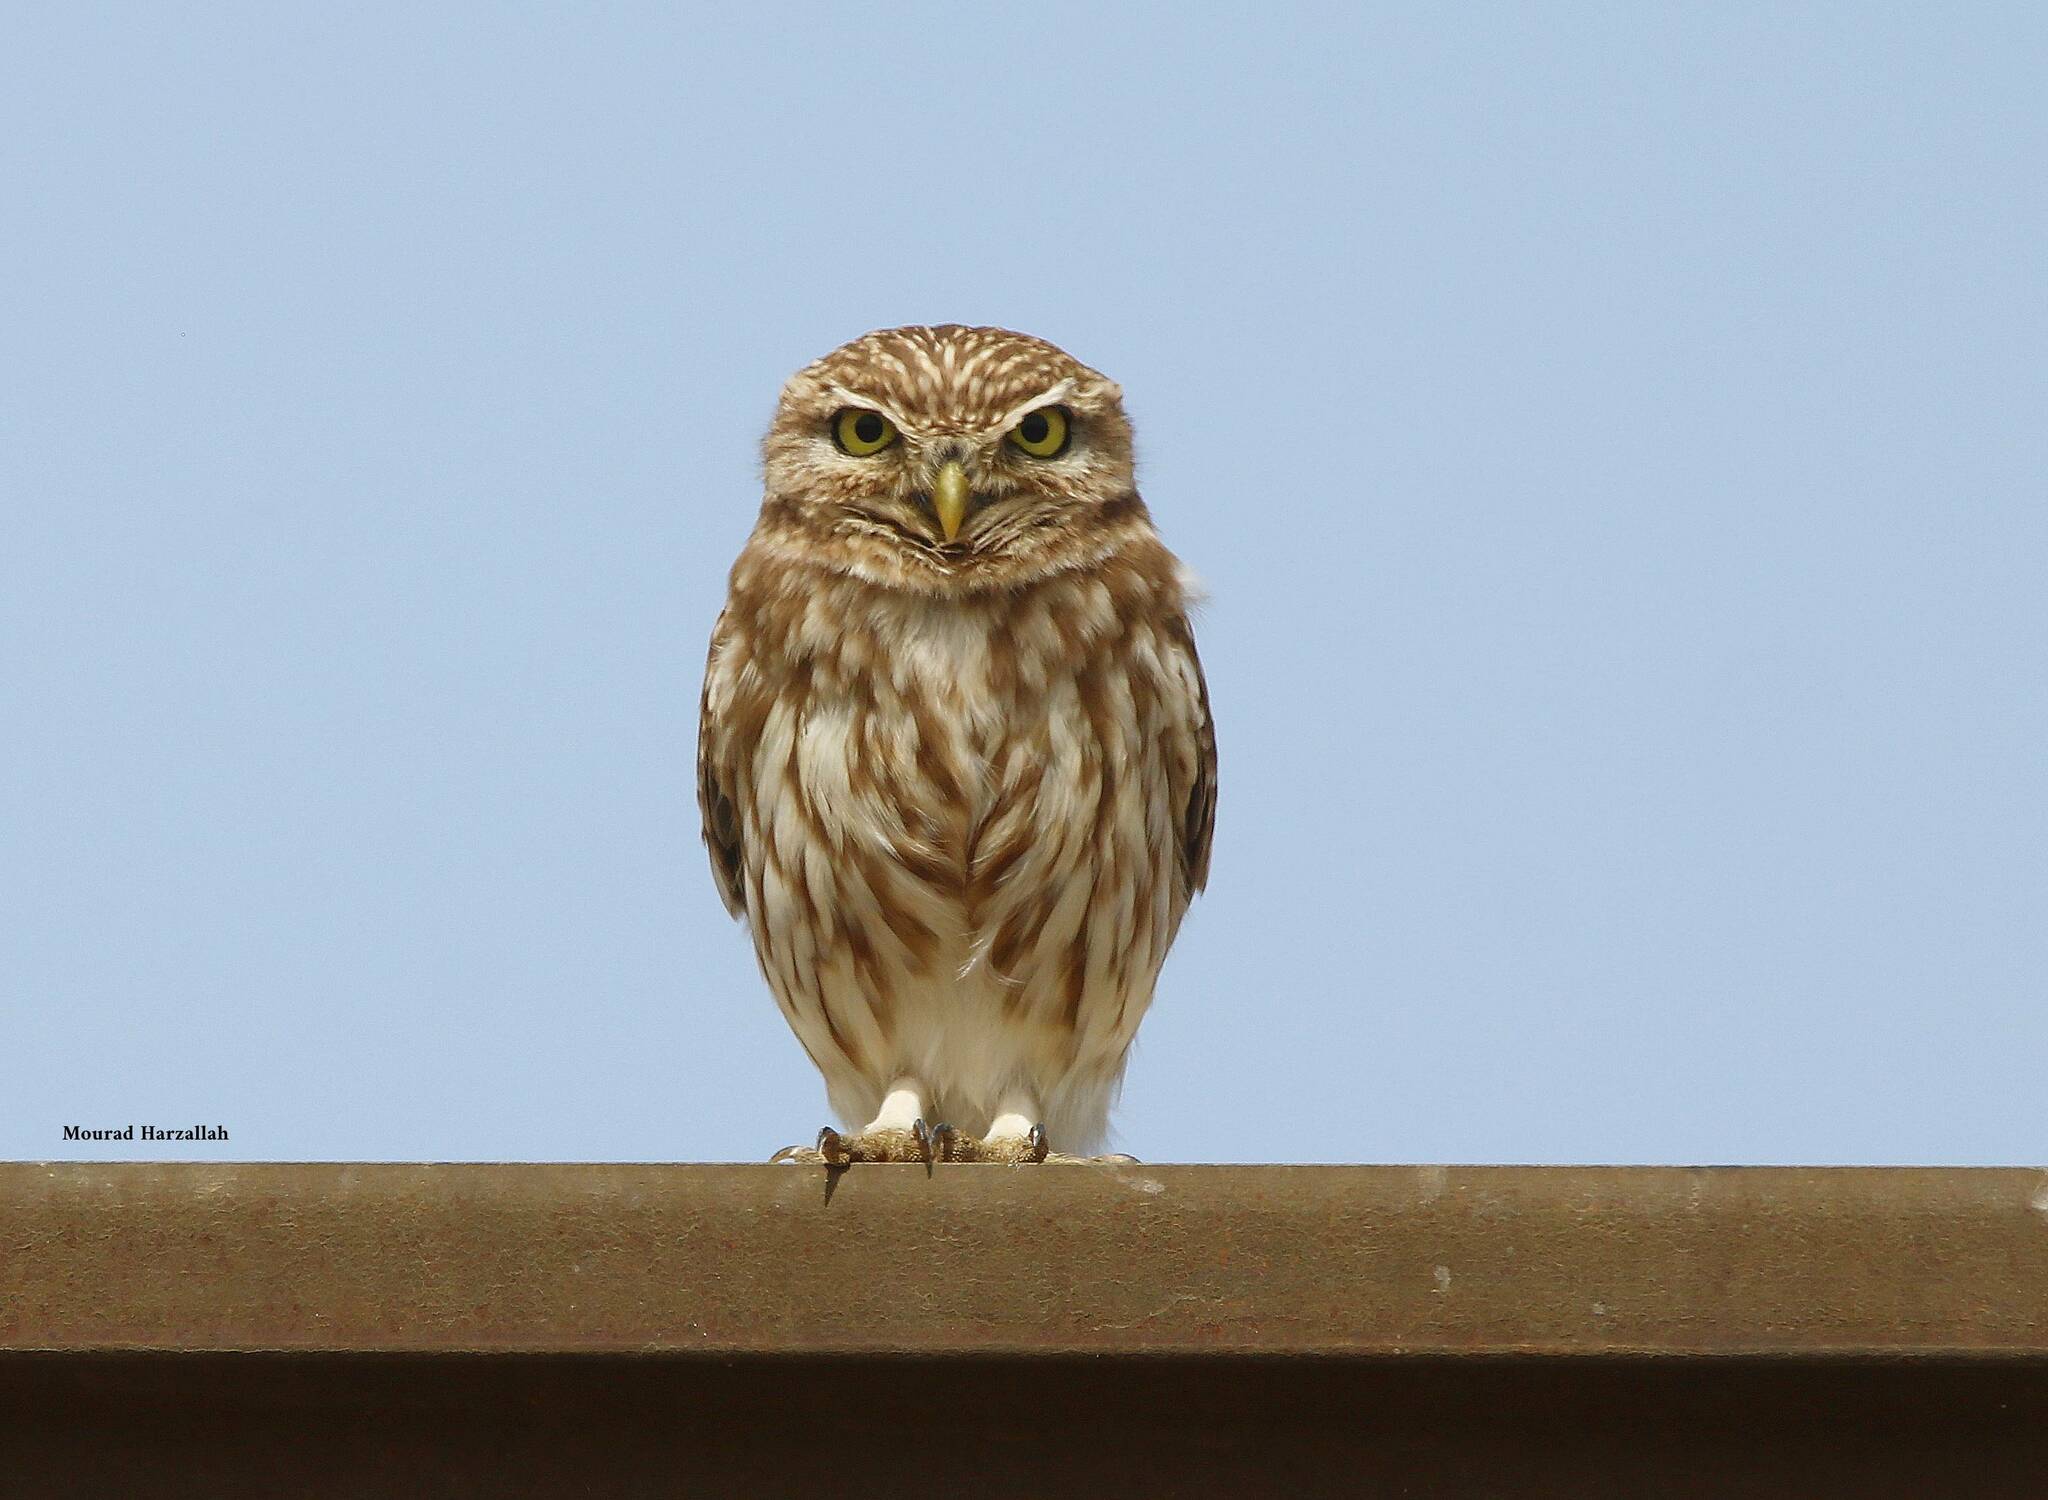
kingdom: Animalia
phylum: Chordata
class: Aves
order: Strigiformes
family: Strigidae
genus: Athene
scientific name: Athene noctua
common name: Little owl
